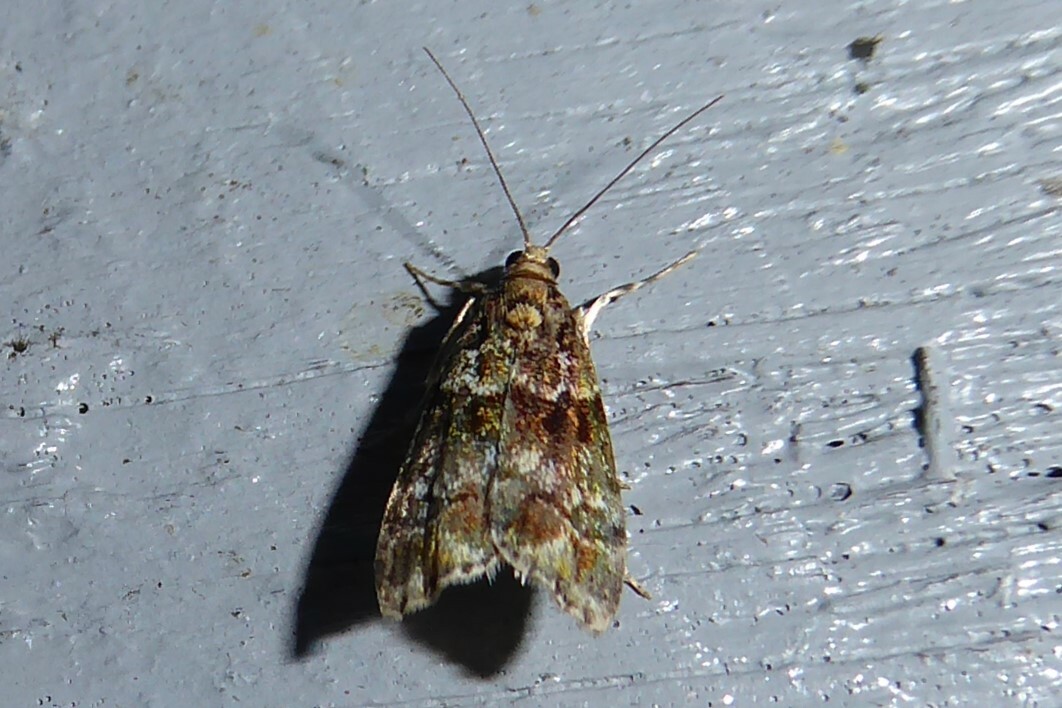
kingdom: Animalia
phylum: Arthropoda
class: Insecta
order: Lepidoptera
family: Crambidae
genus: Eudonia
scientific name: Eudonia minualis
